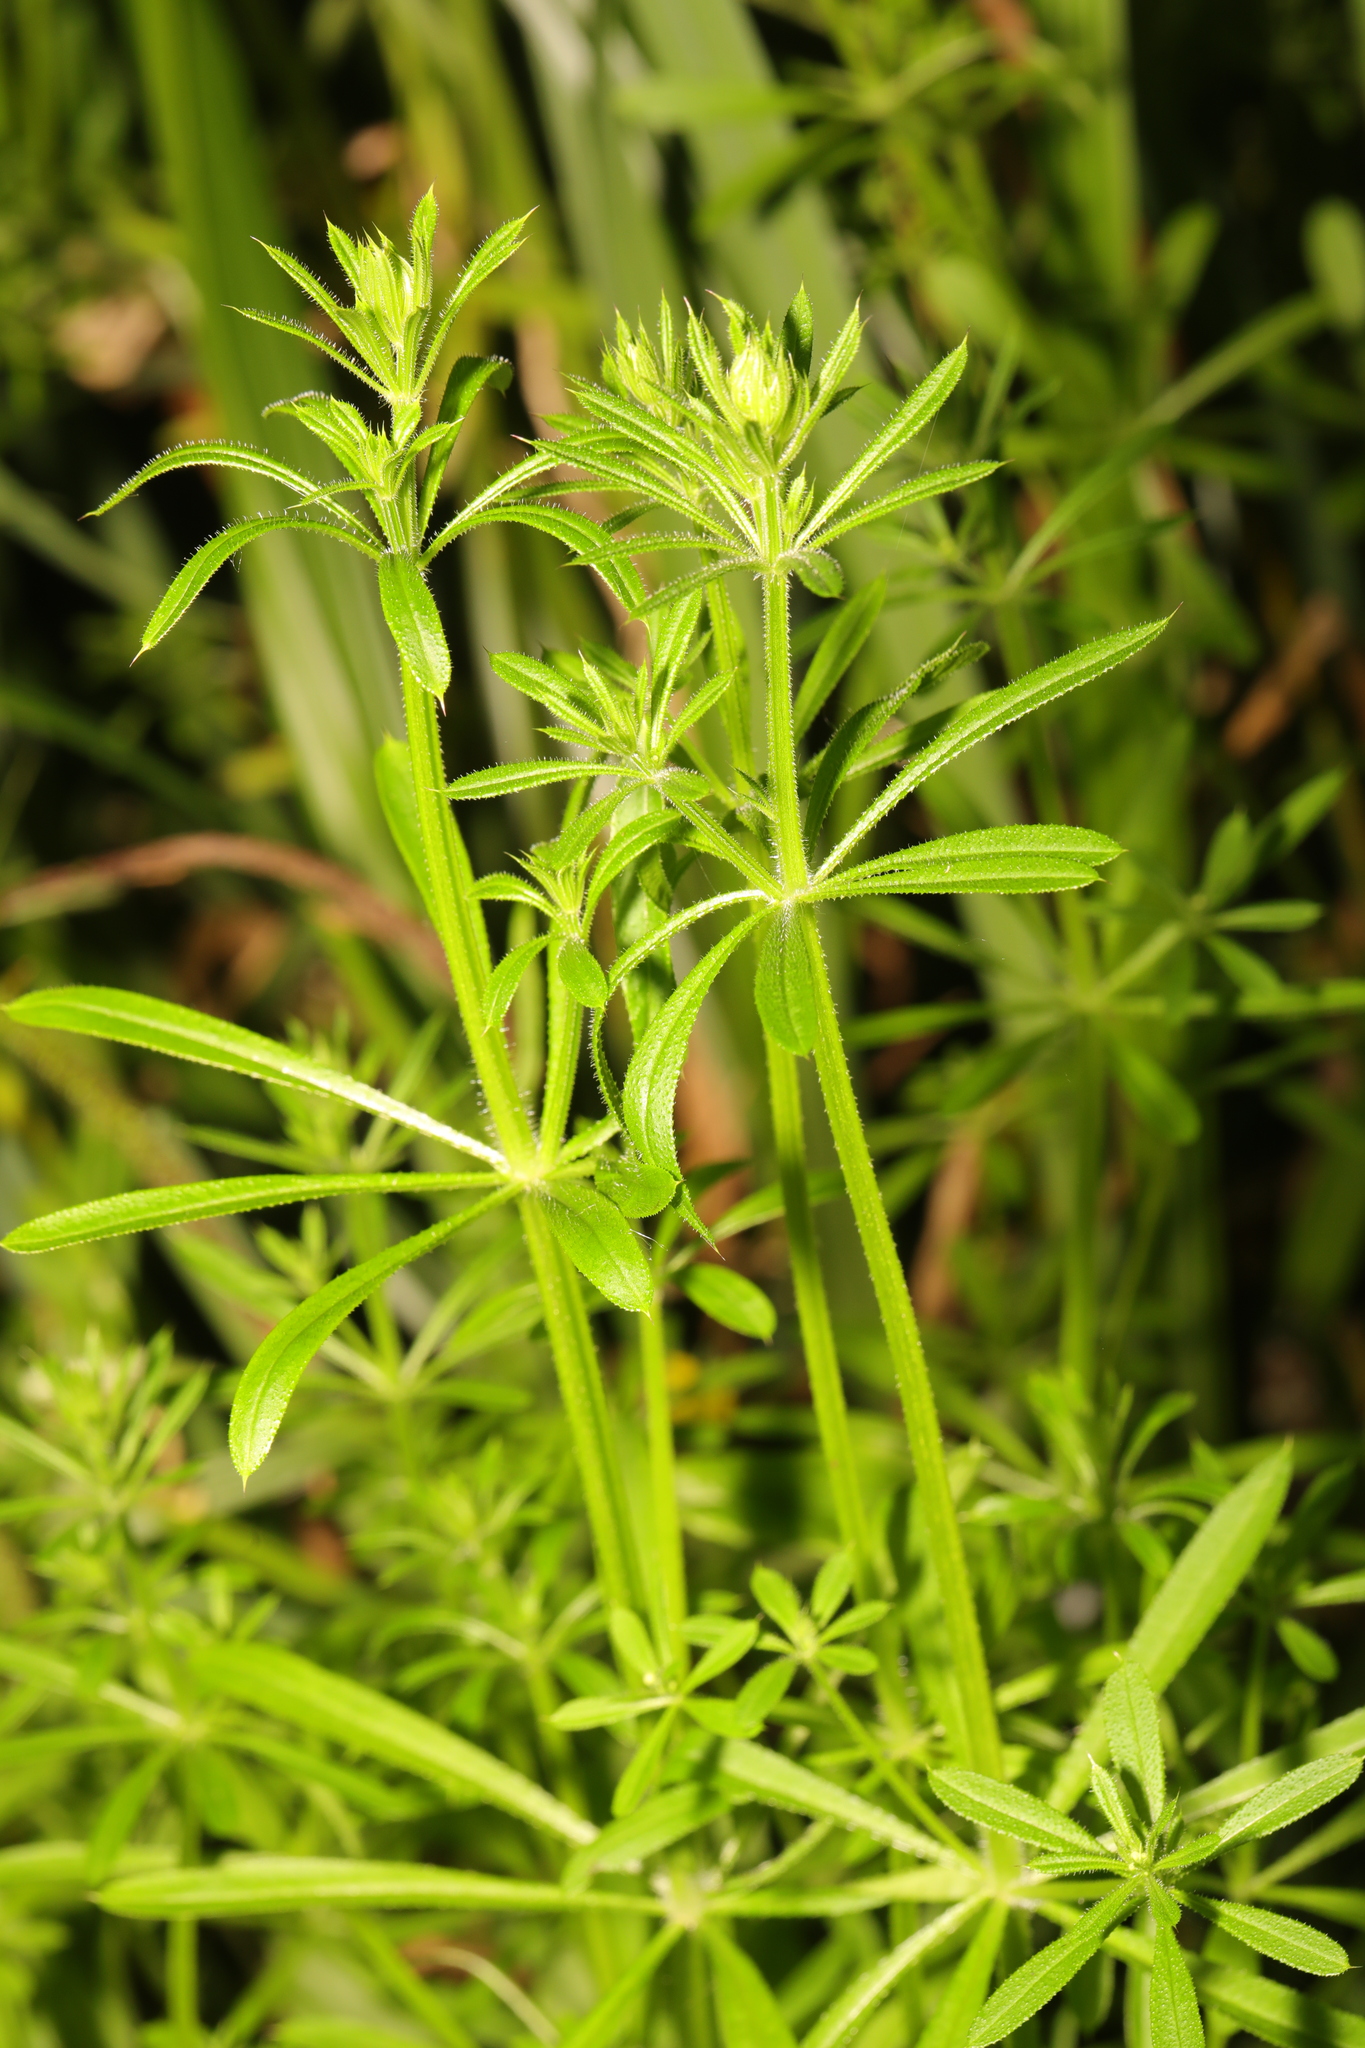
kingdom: Plantae
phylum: Tracheophyta
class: Magnoliopsida
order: Gentianales
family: Rubiaceae
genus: Galium
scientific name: Galium aparine
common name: Cleavers
